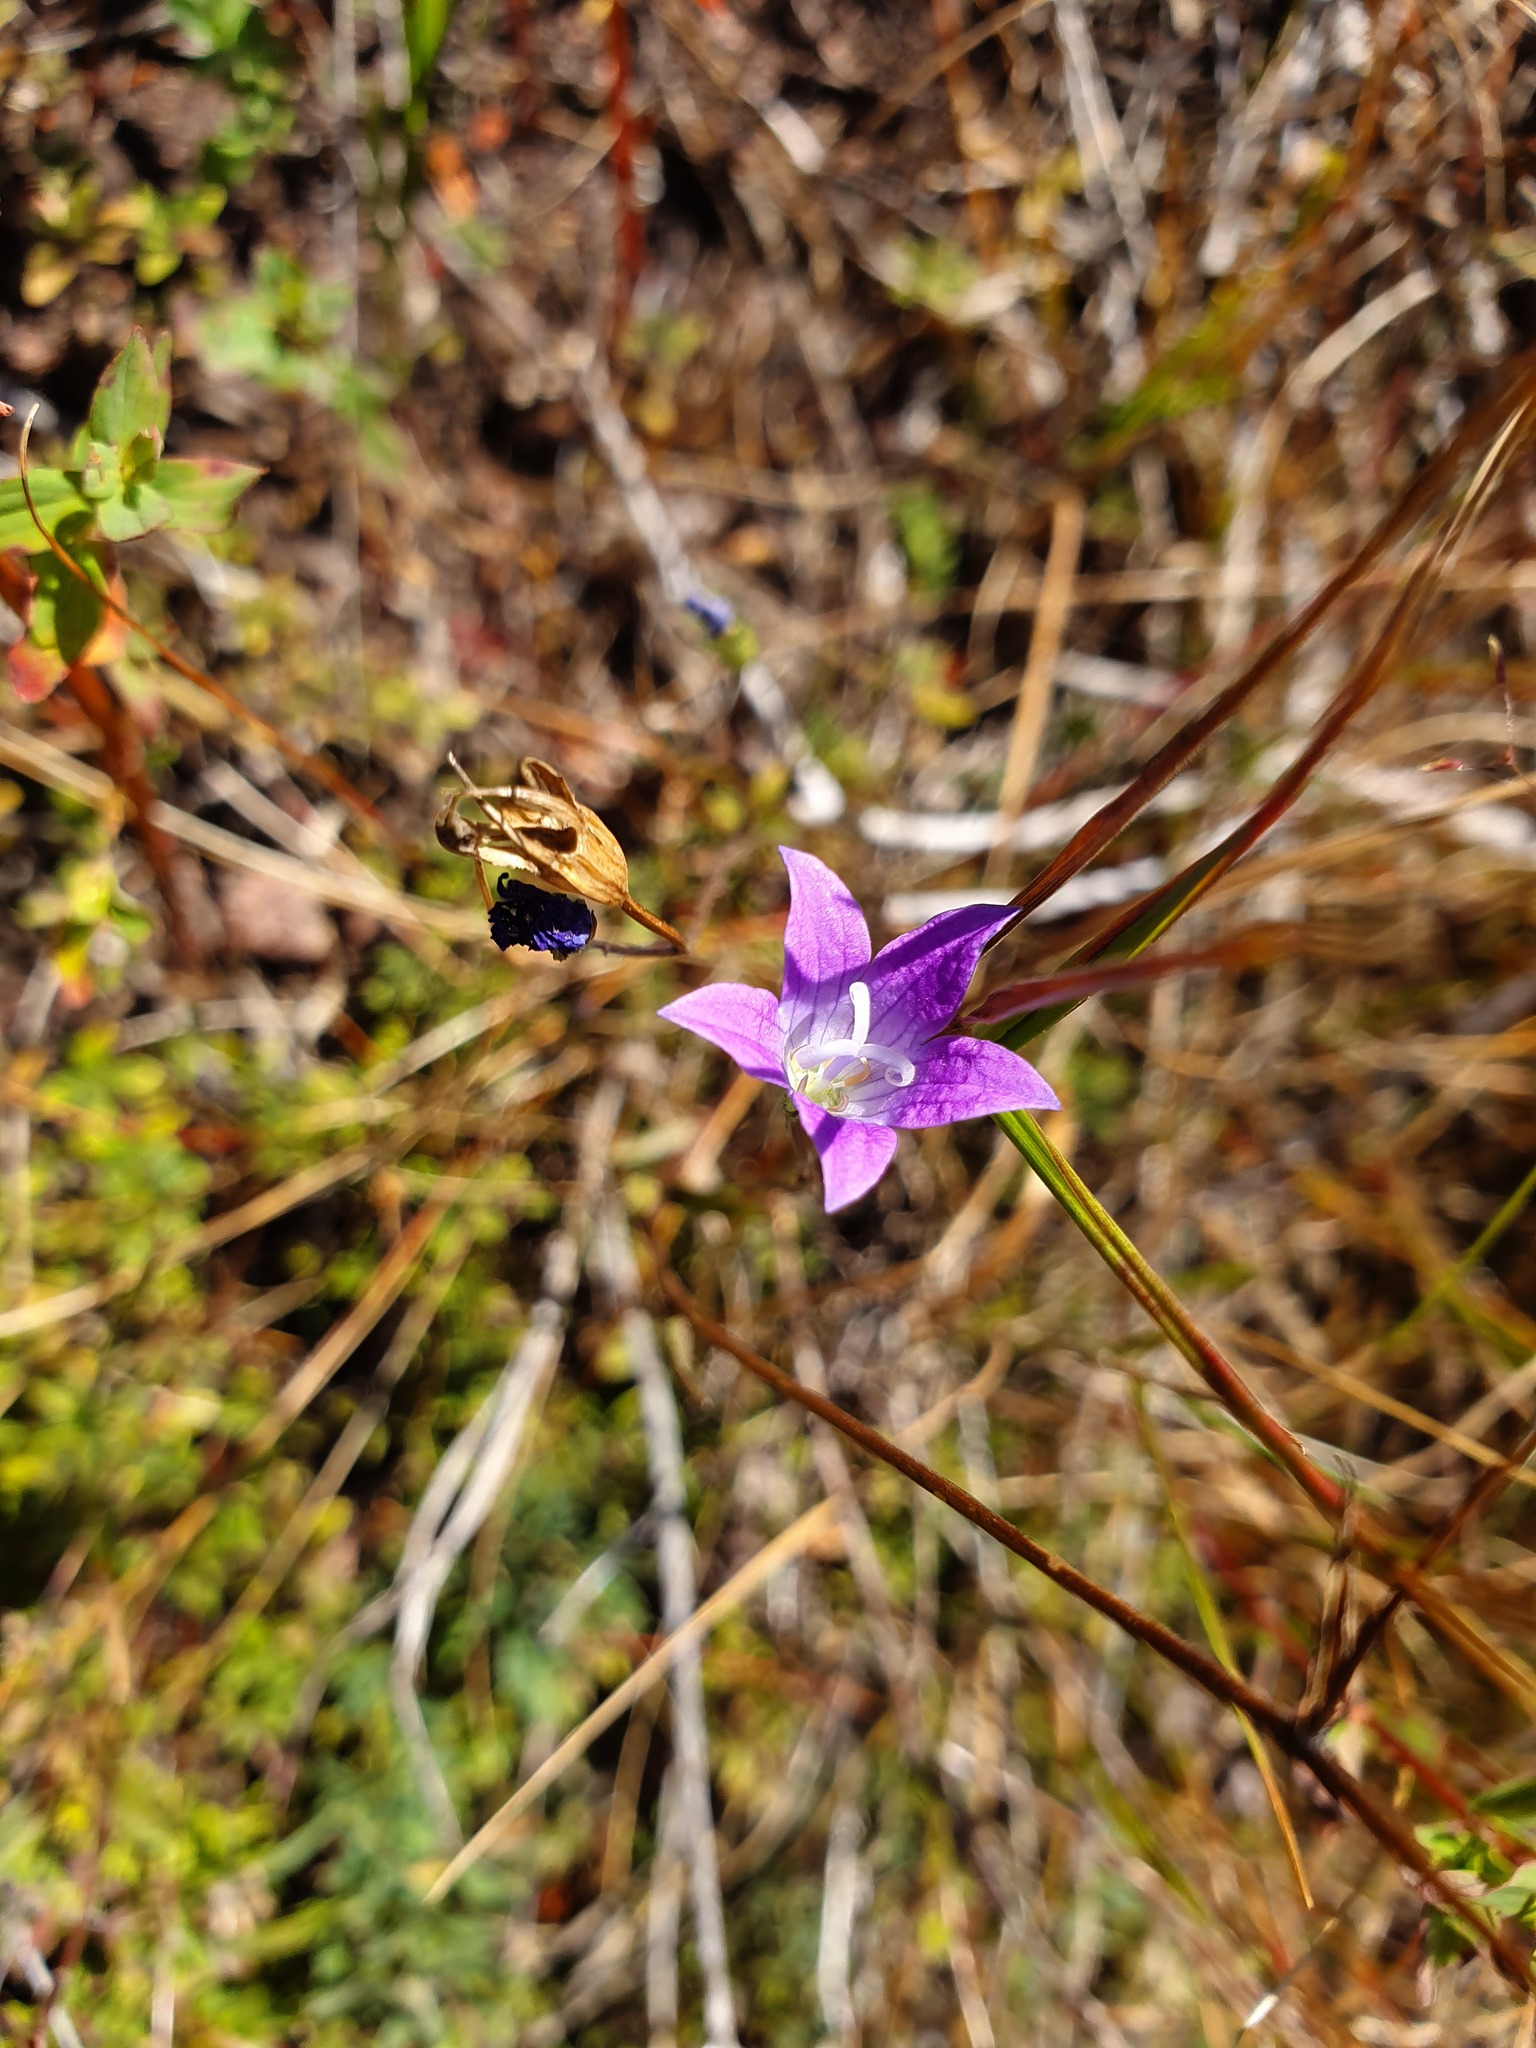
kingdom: Plantae
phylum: Tracheophyta
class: Magnoliopsida
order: Asterales
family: Campanulaceae
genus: Campanula
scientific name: Campanula patula
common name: Spreading bellflower
